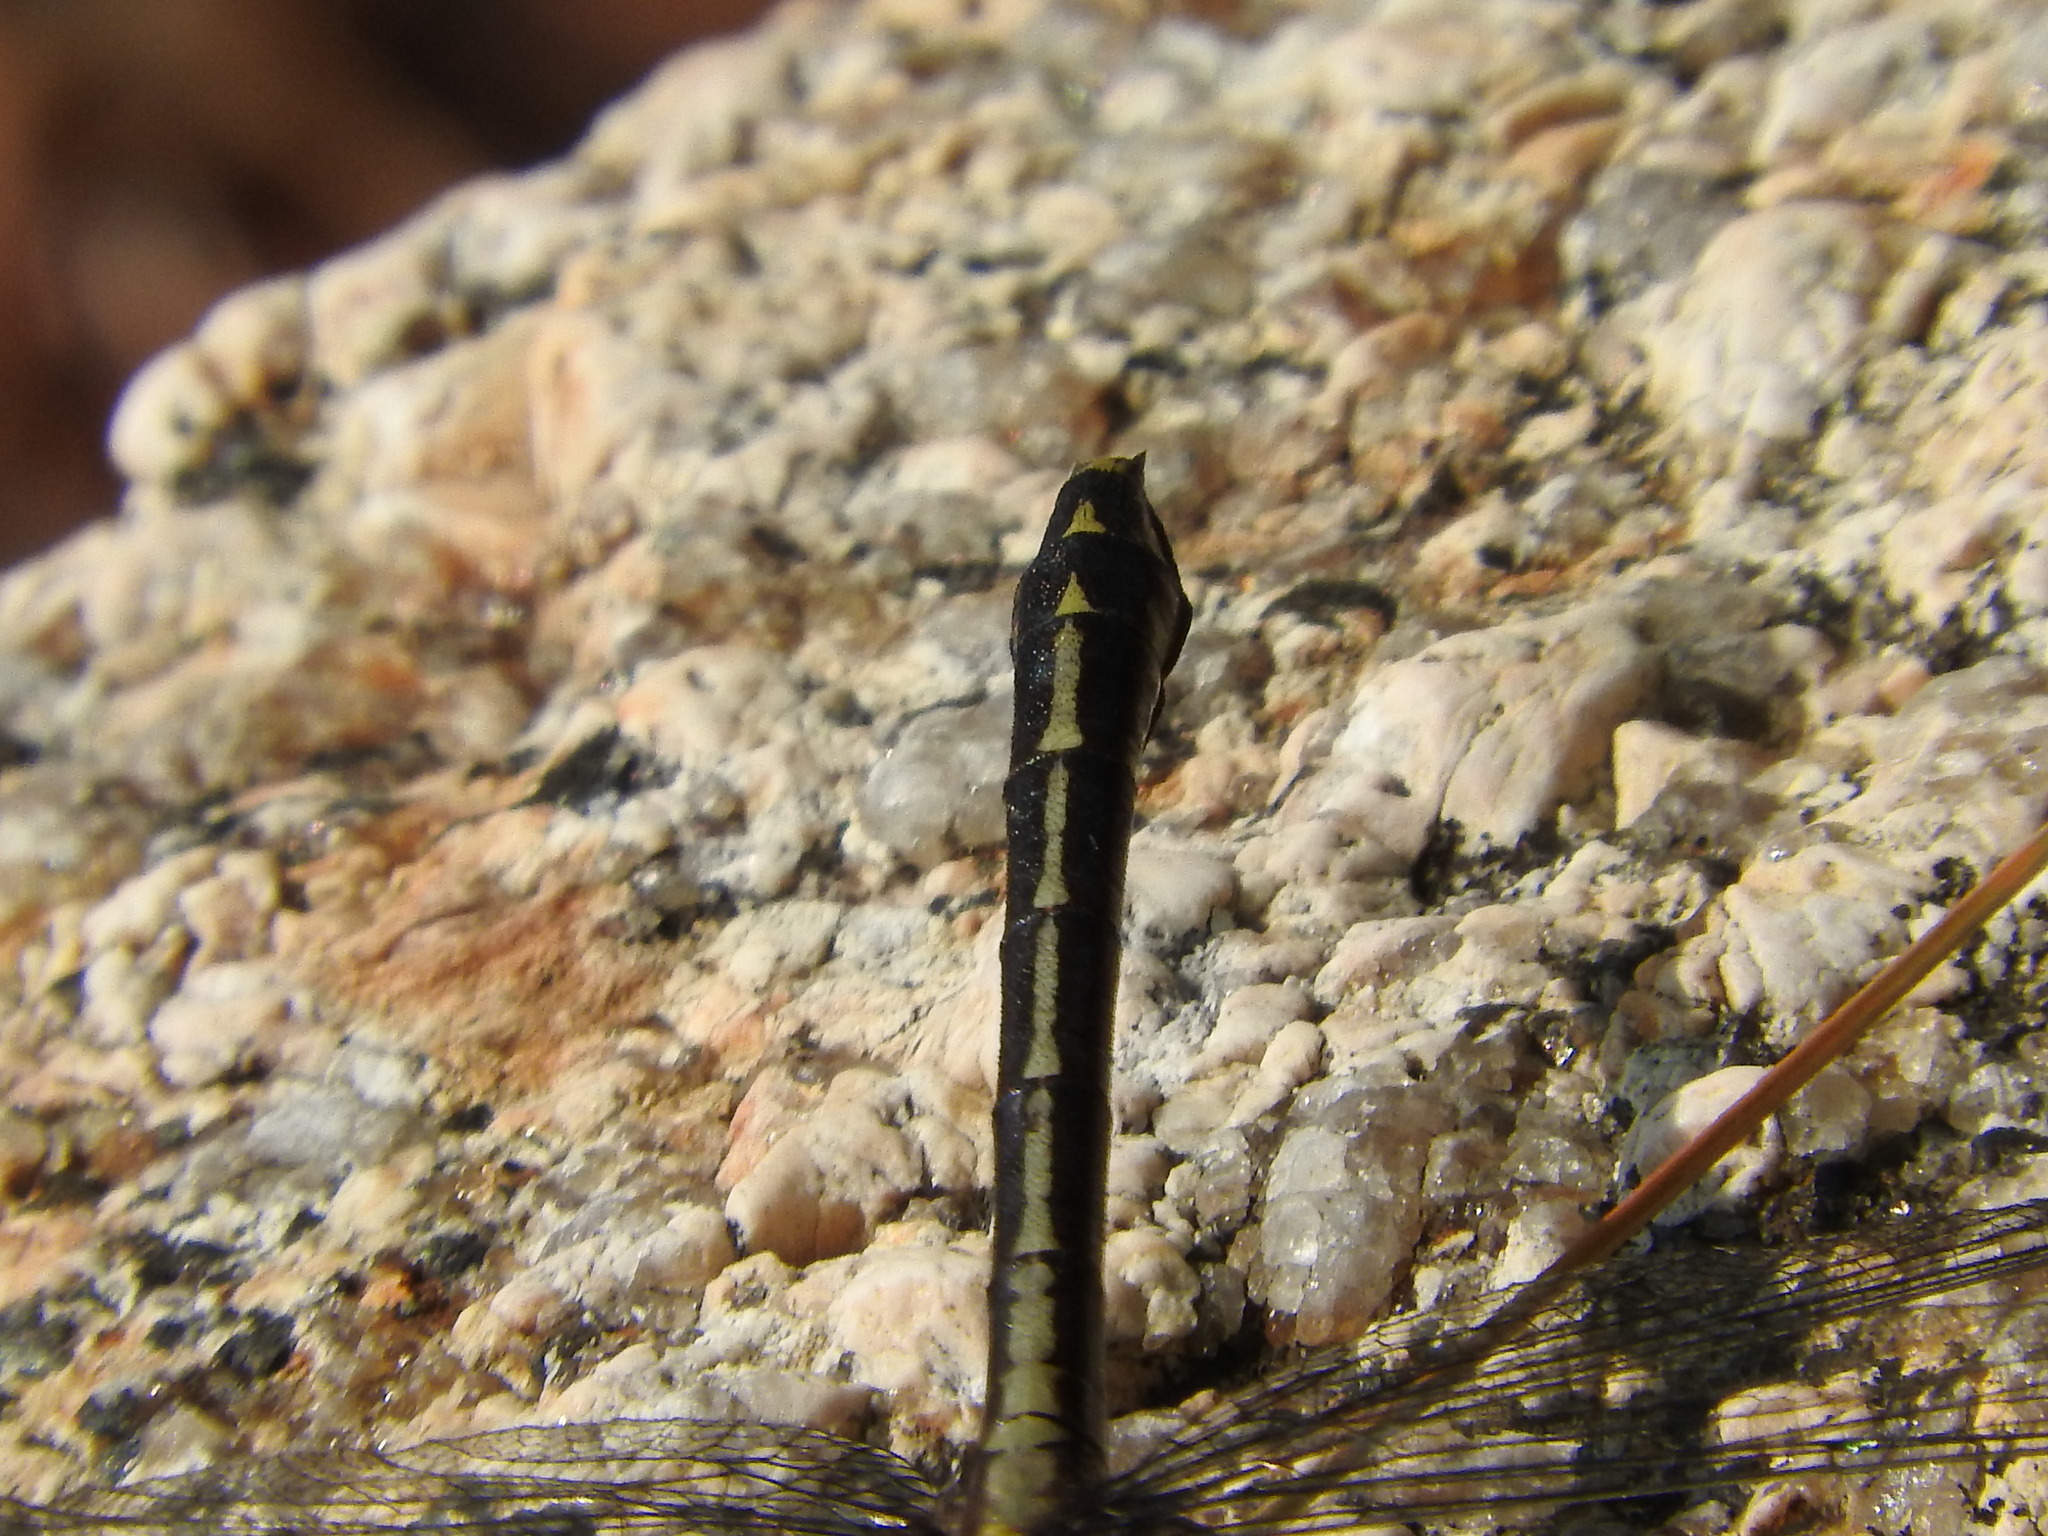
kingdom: Animalia
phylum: Arthropoda
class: Insecta
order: Odonata
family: Gomphidae
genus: Dromogomphus
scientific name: Dromogomphus spinosus
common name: Black-shouldered spinyleg
